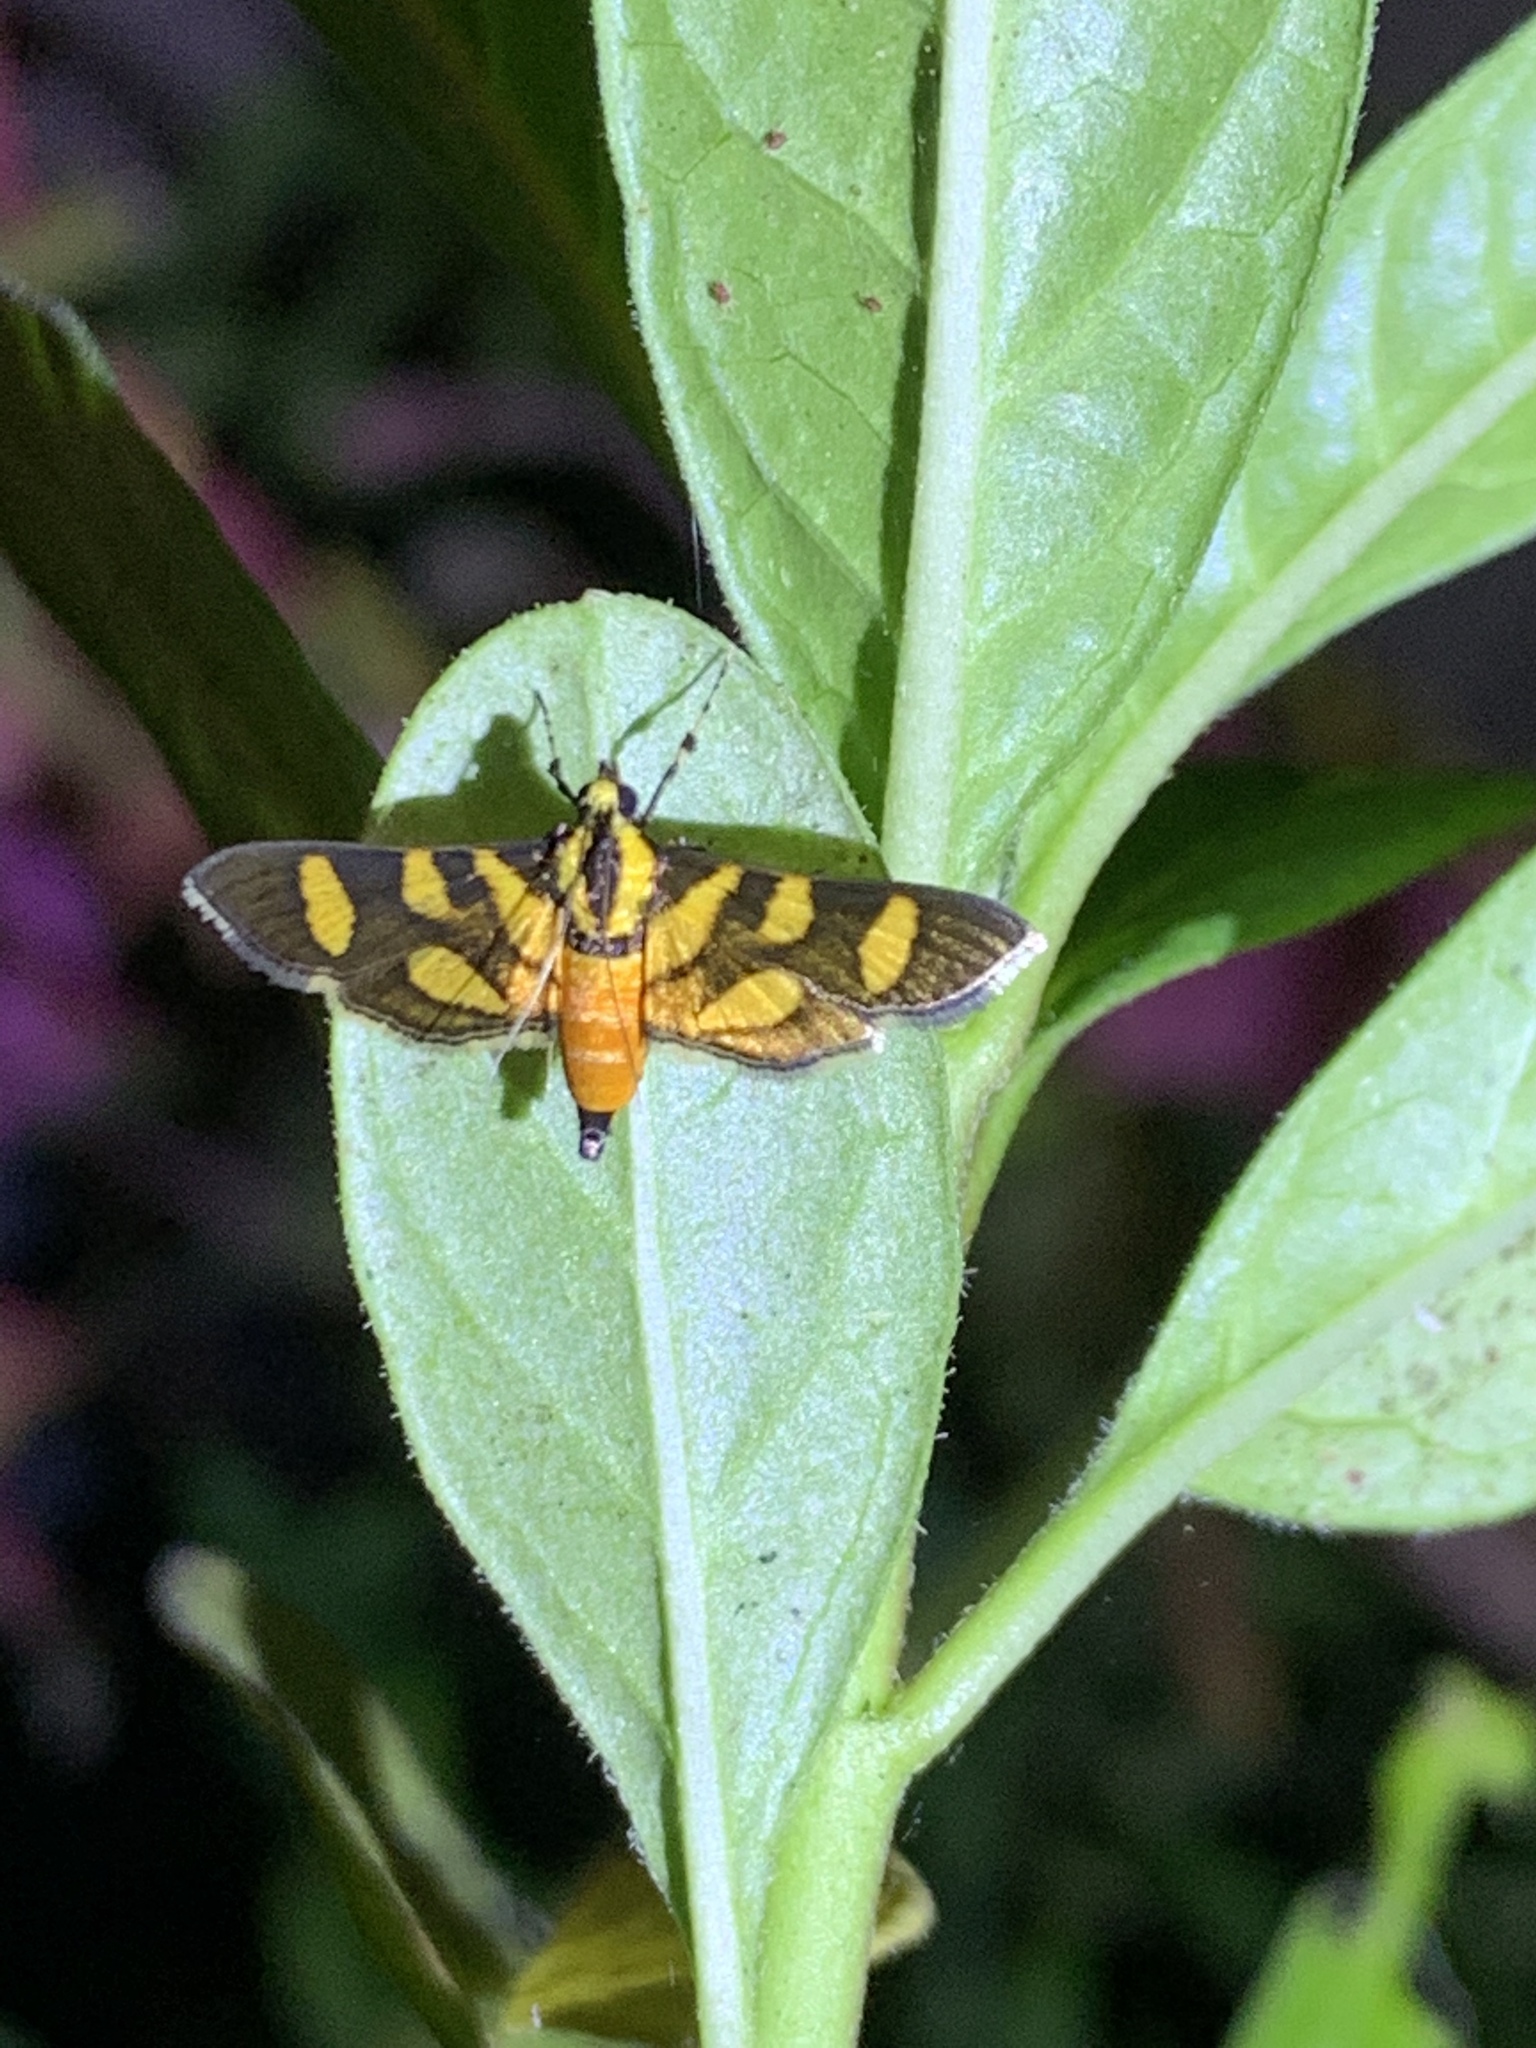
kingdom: Animalia
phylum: Arthropoda
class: Insecta
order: Lepidoptera
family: Crambidae
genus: Syngamia
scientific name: Syngamia florella
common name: Orange-spotted flower moth
